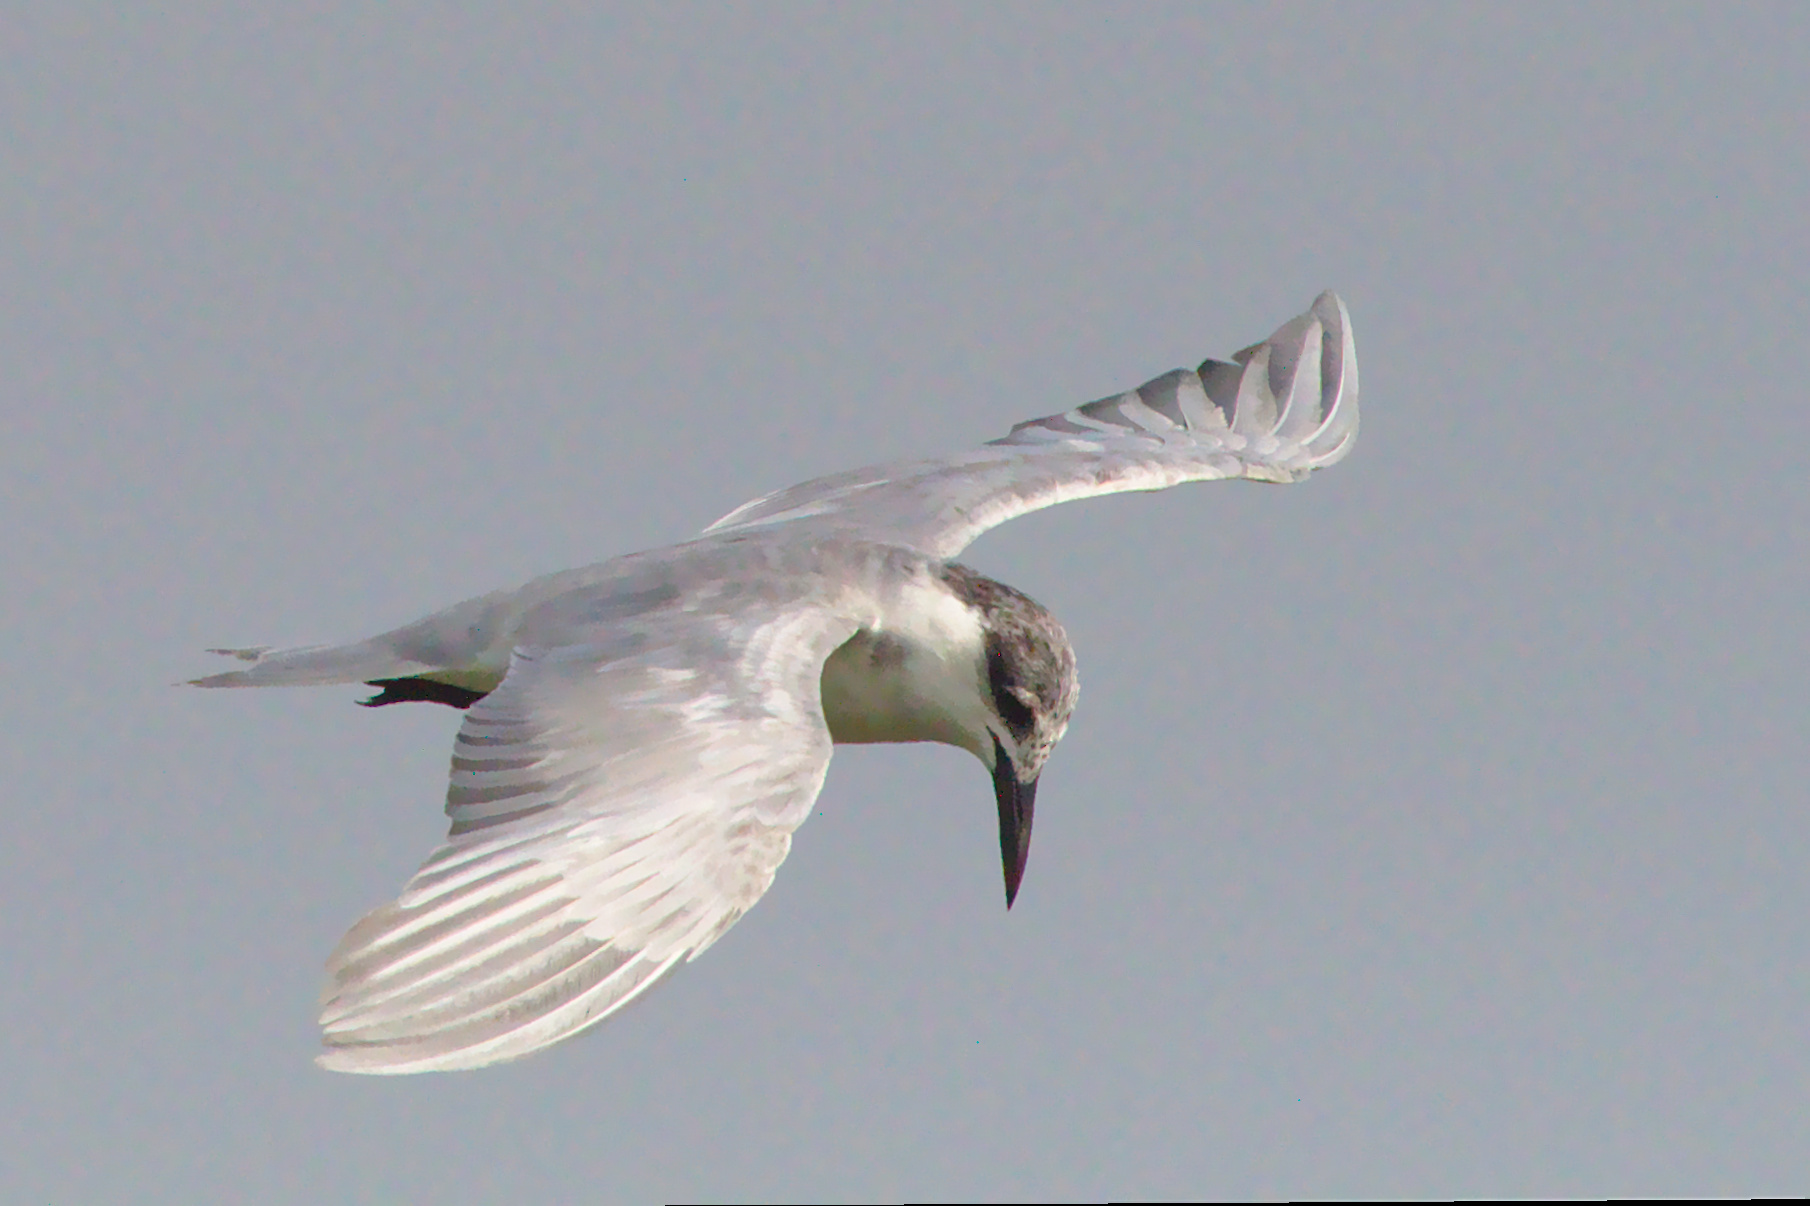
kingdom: Animalia
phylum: Chordata
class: Aves
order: Charadriiformes
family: Laridae
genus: Chlidonias
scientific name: Chlidonias hybrida
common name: Whiskered tern
